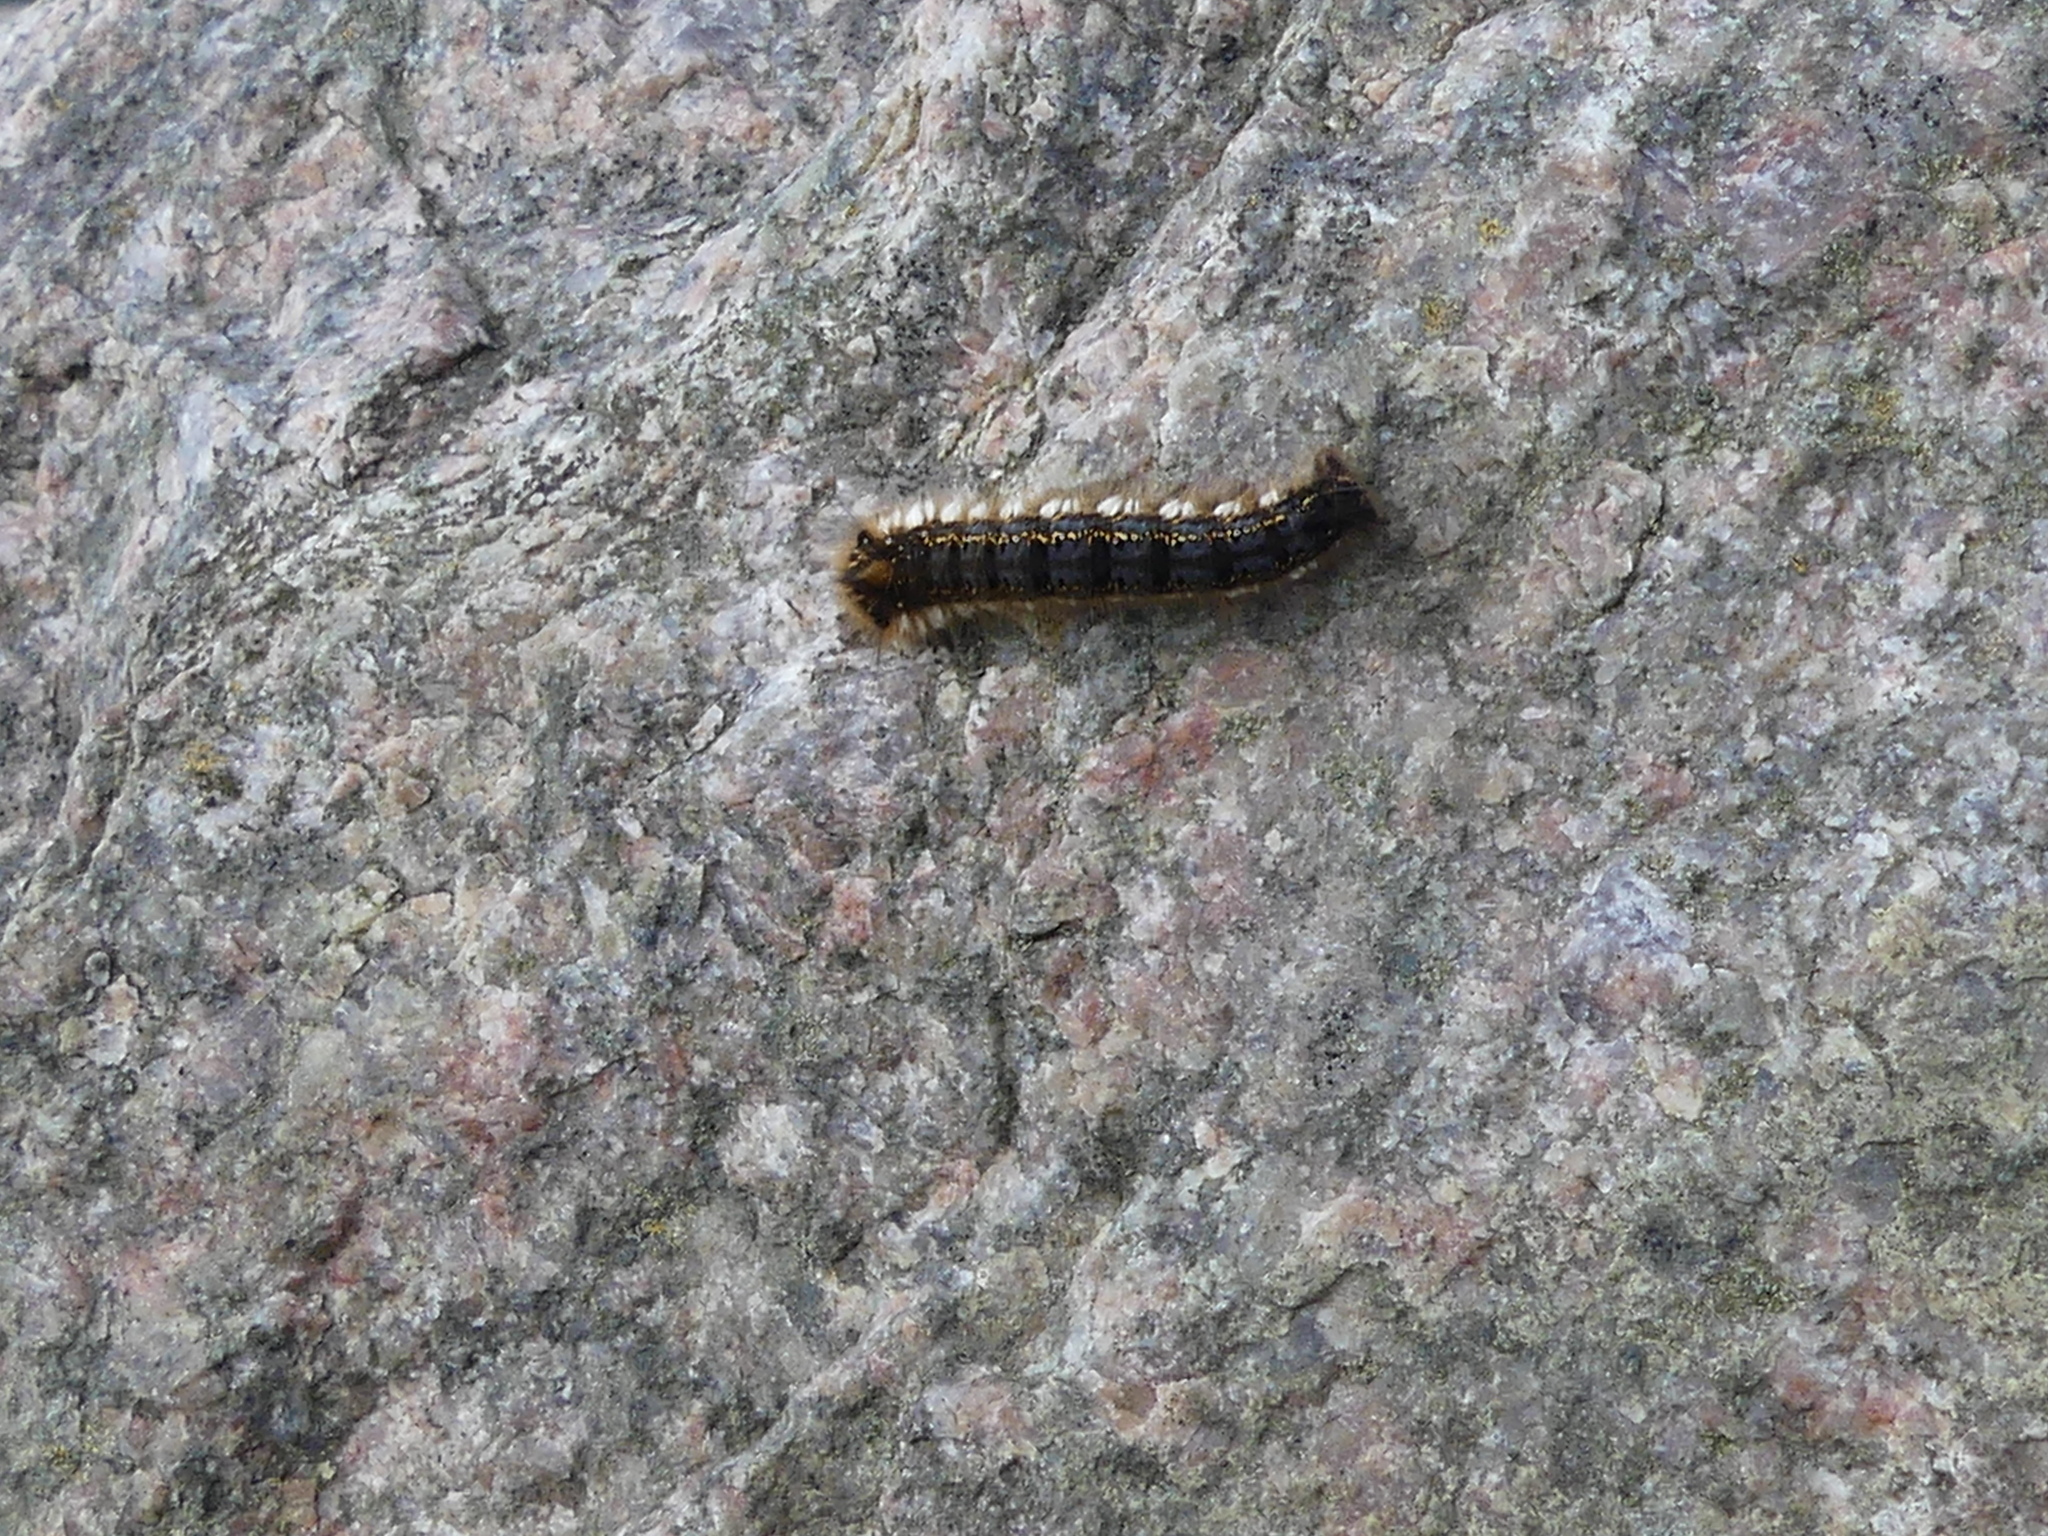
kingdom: Animalia
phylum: Arthropoda
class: Insecta
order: Lepidoptera
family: Lasiocampidae
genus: Euthrix
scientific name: Euthrix potatoria
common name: Drinker
